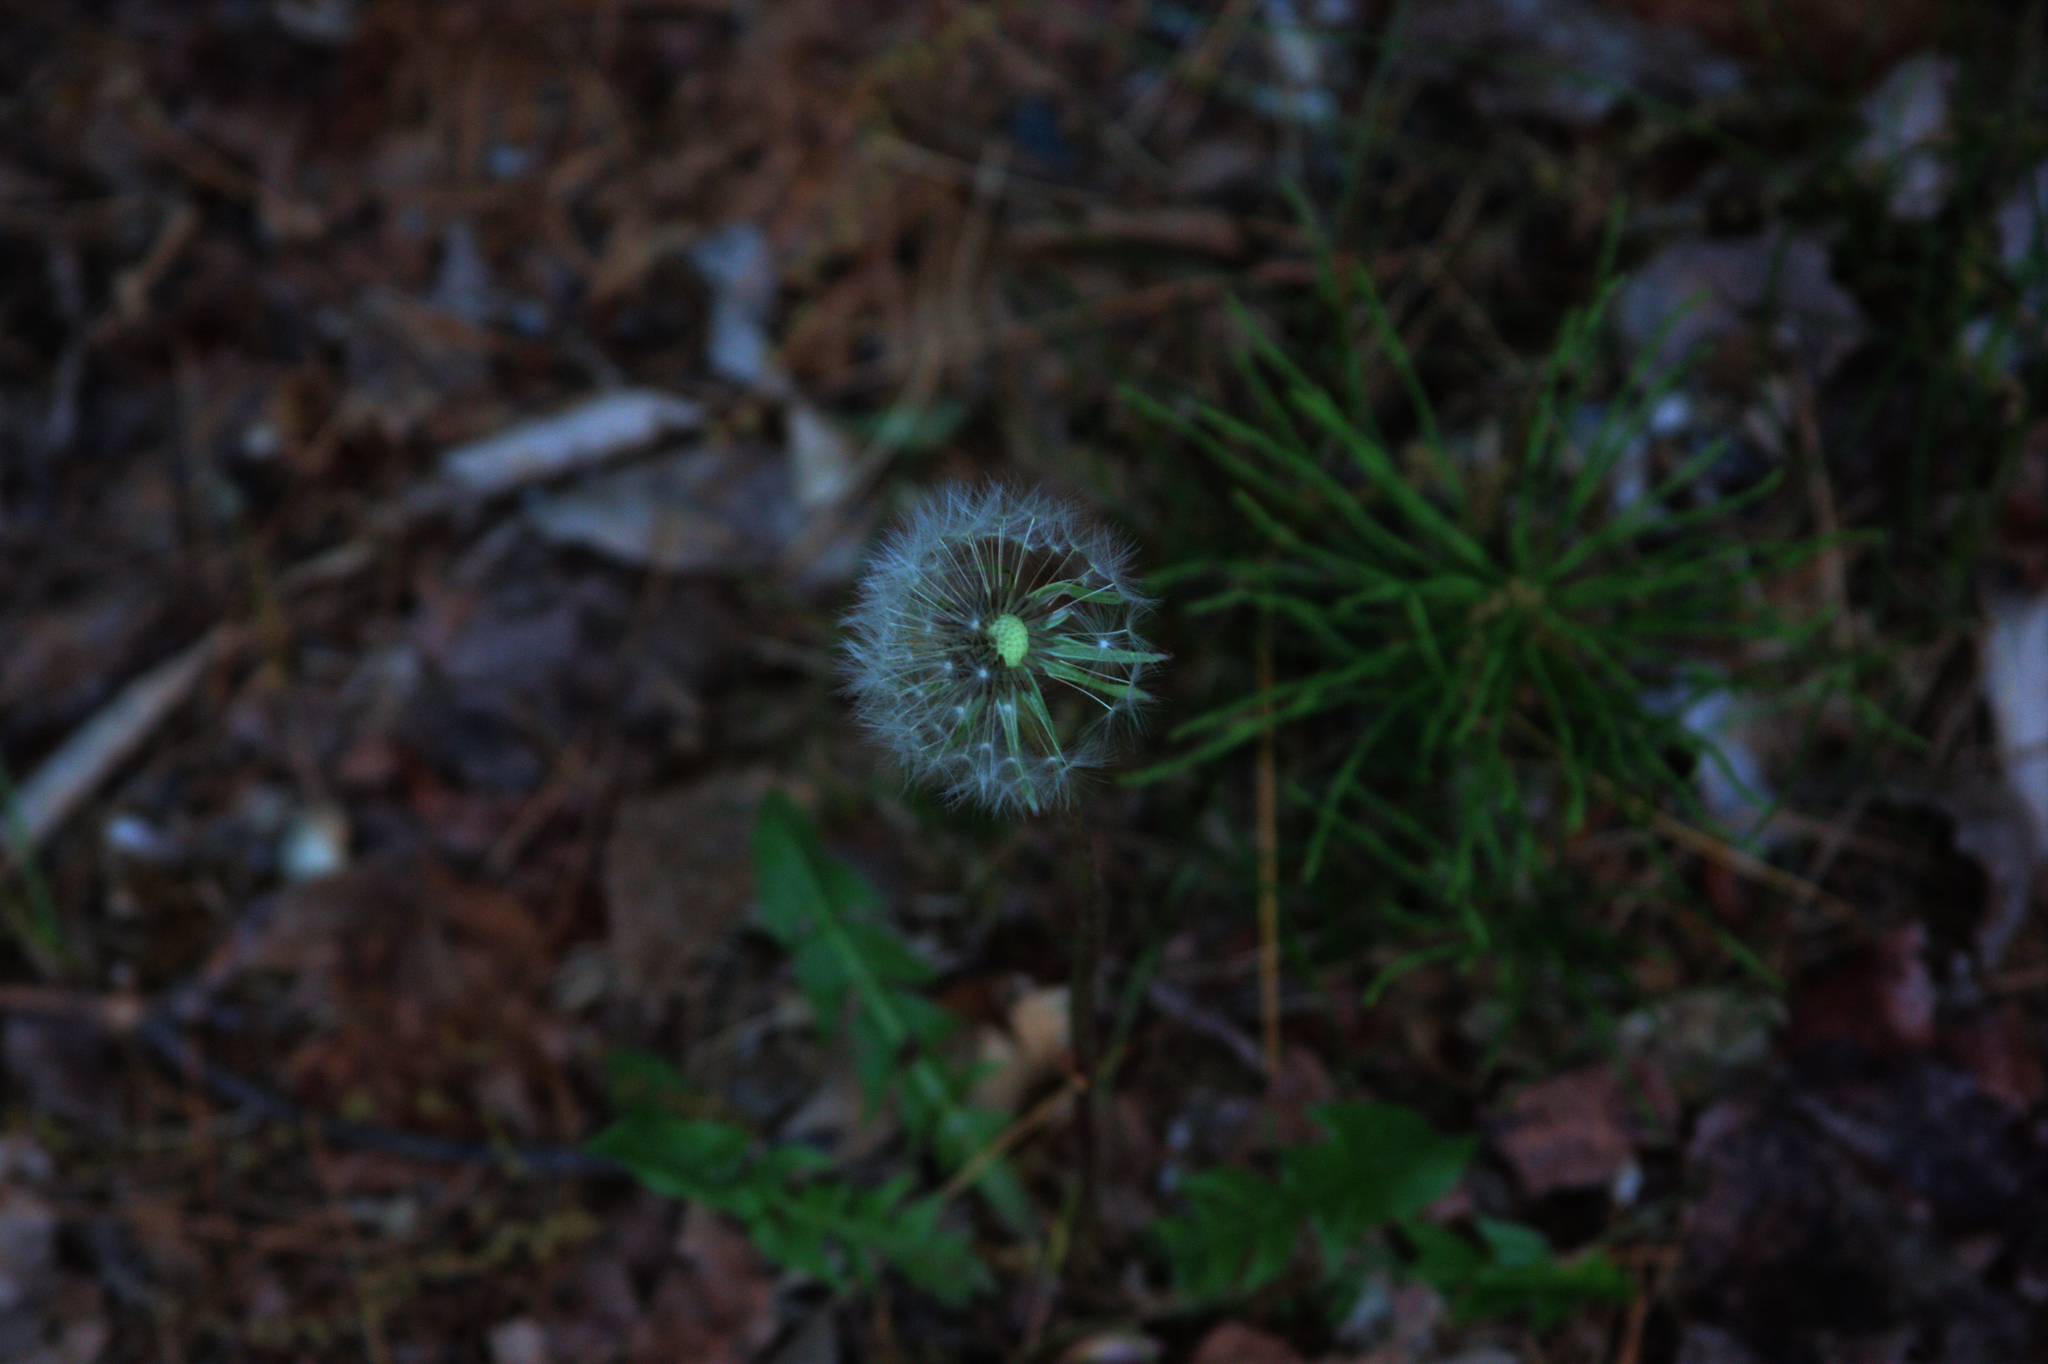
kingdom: Plantae
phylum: Tracheophyta
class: Magnoliopsida
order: Asterales
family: Asteraceae
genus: Taraxacum
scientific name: Taraxacum officinale
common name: Common dandelion
